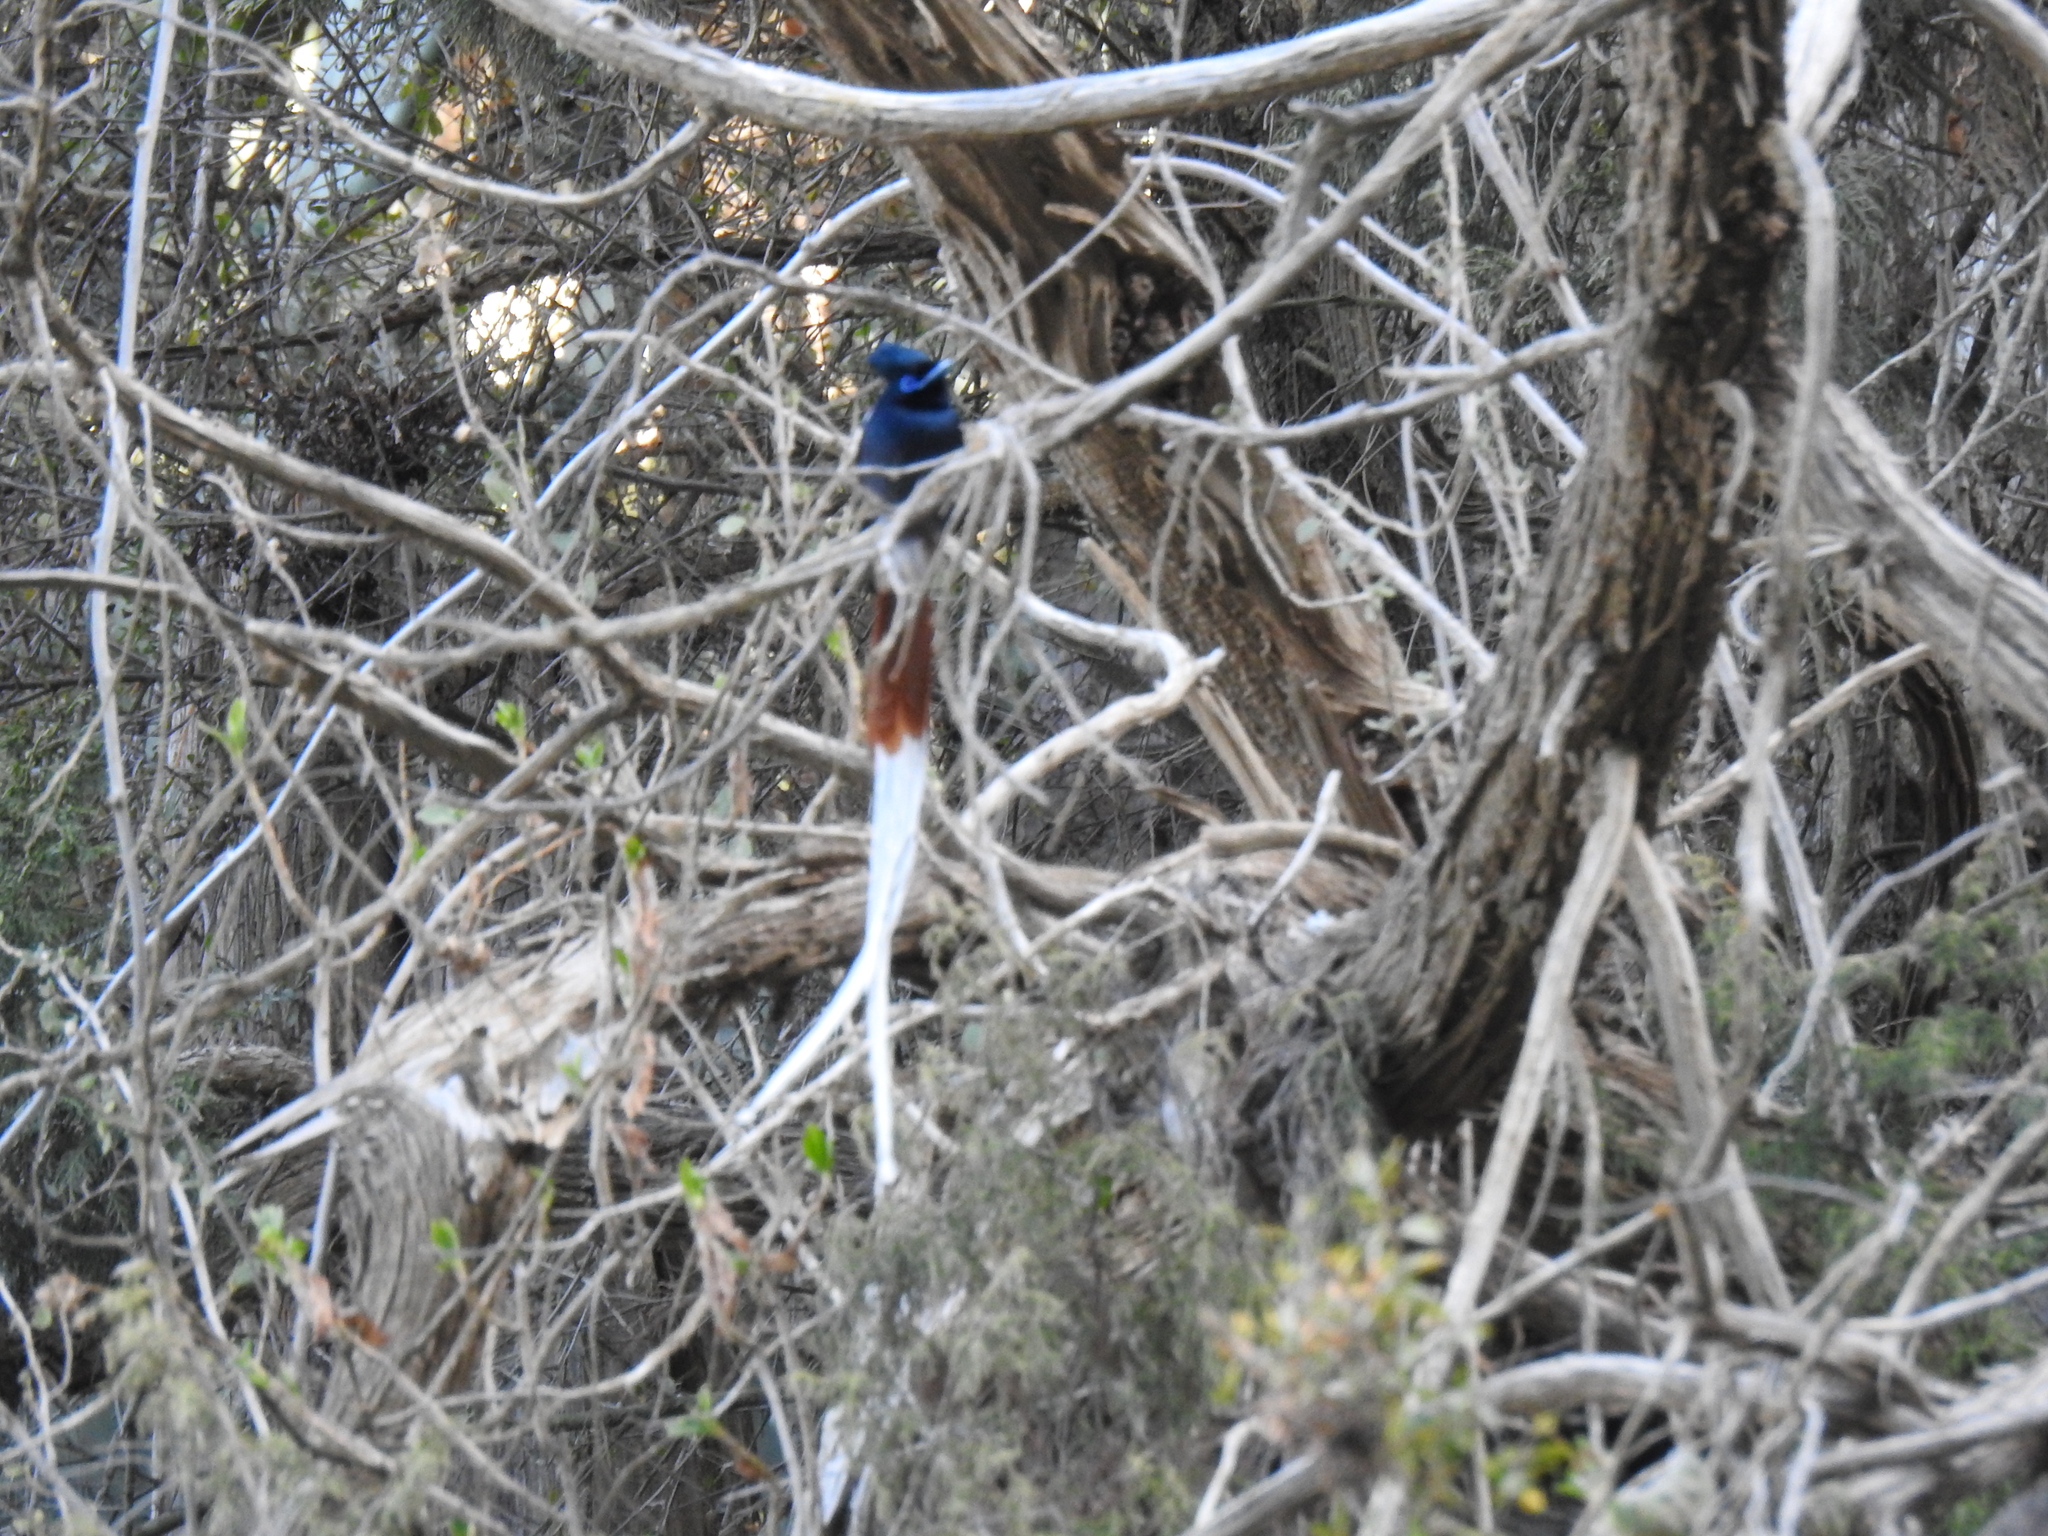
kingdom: Animalia
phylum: Chordata
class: Aves
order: Passeriformes
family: Monarchidae
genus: Terpsiphone
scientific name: Terpsiphone viridis
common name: African paradise flycatcher
